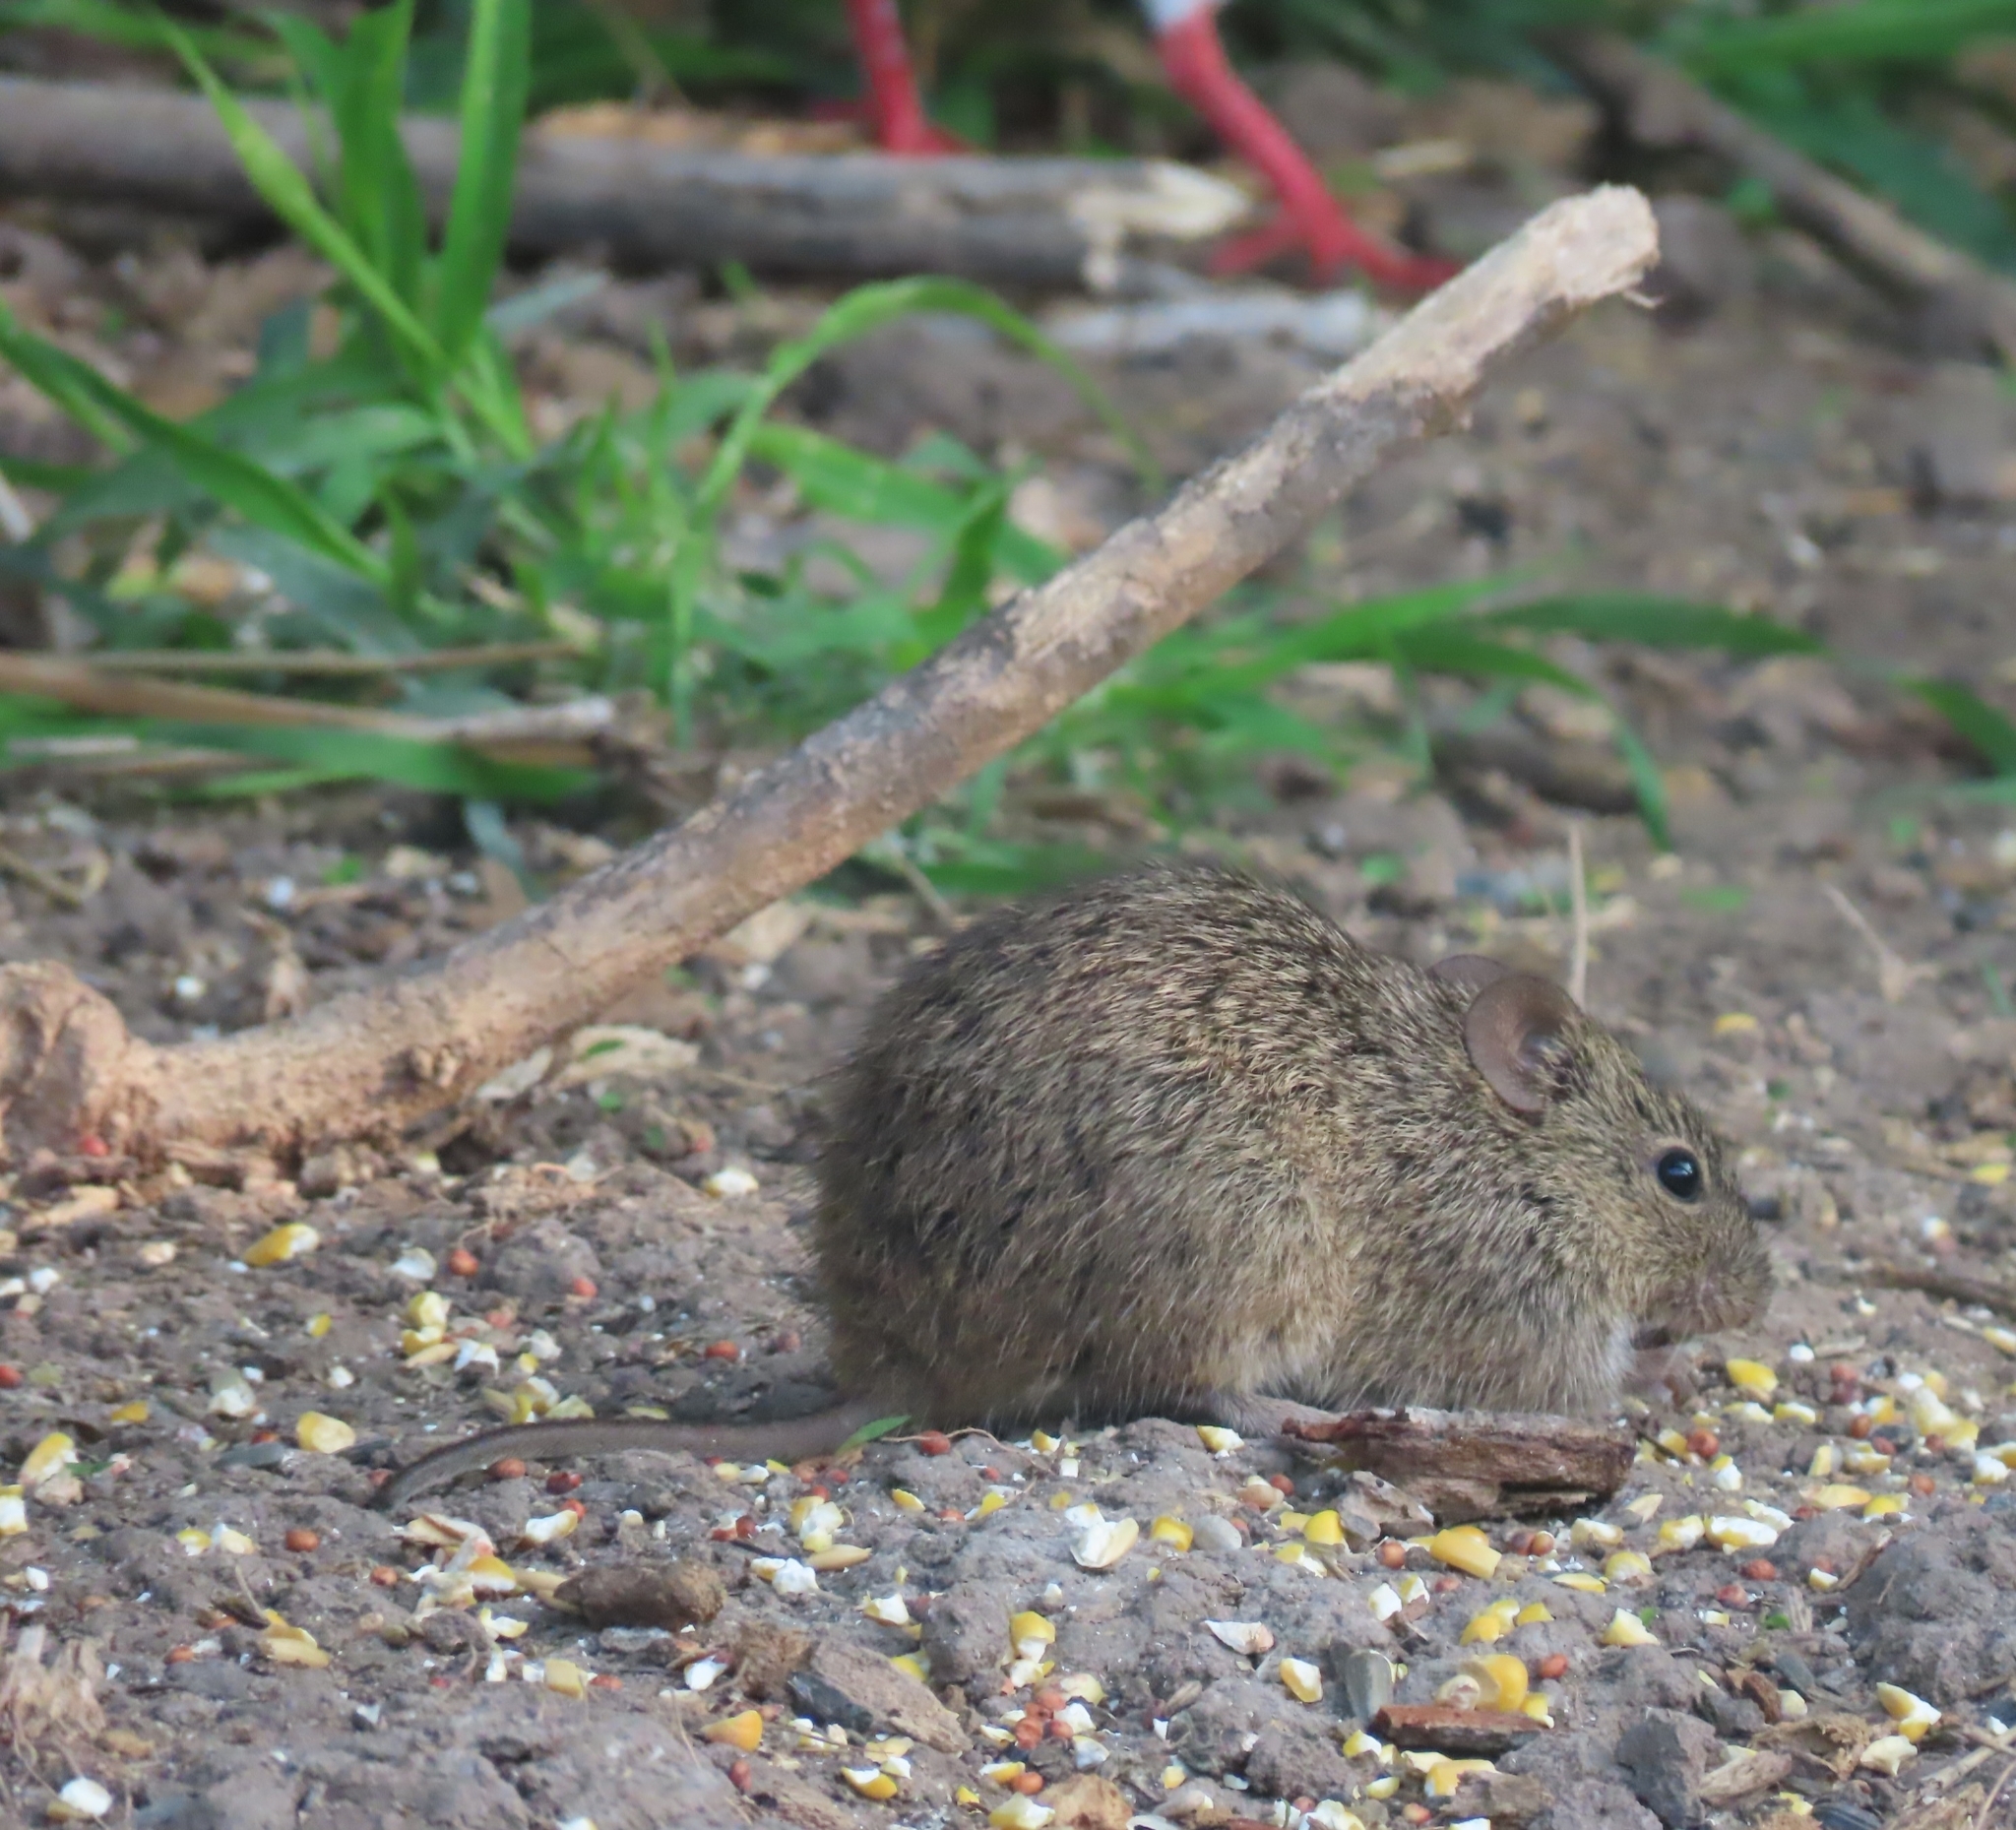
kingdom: Animalia
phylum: Chordata
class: Mammalia
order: Rodentia
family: Cricetidae
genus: Sigmodon
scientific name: Sigmodon hispidus
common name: Hispid cotton rat
